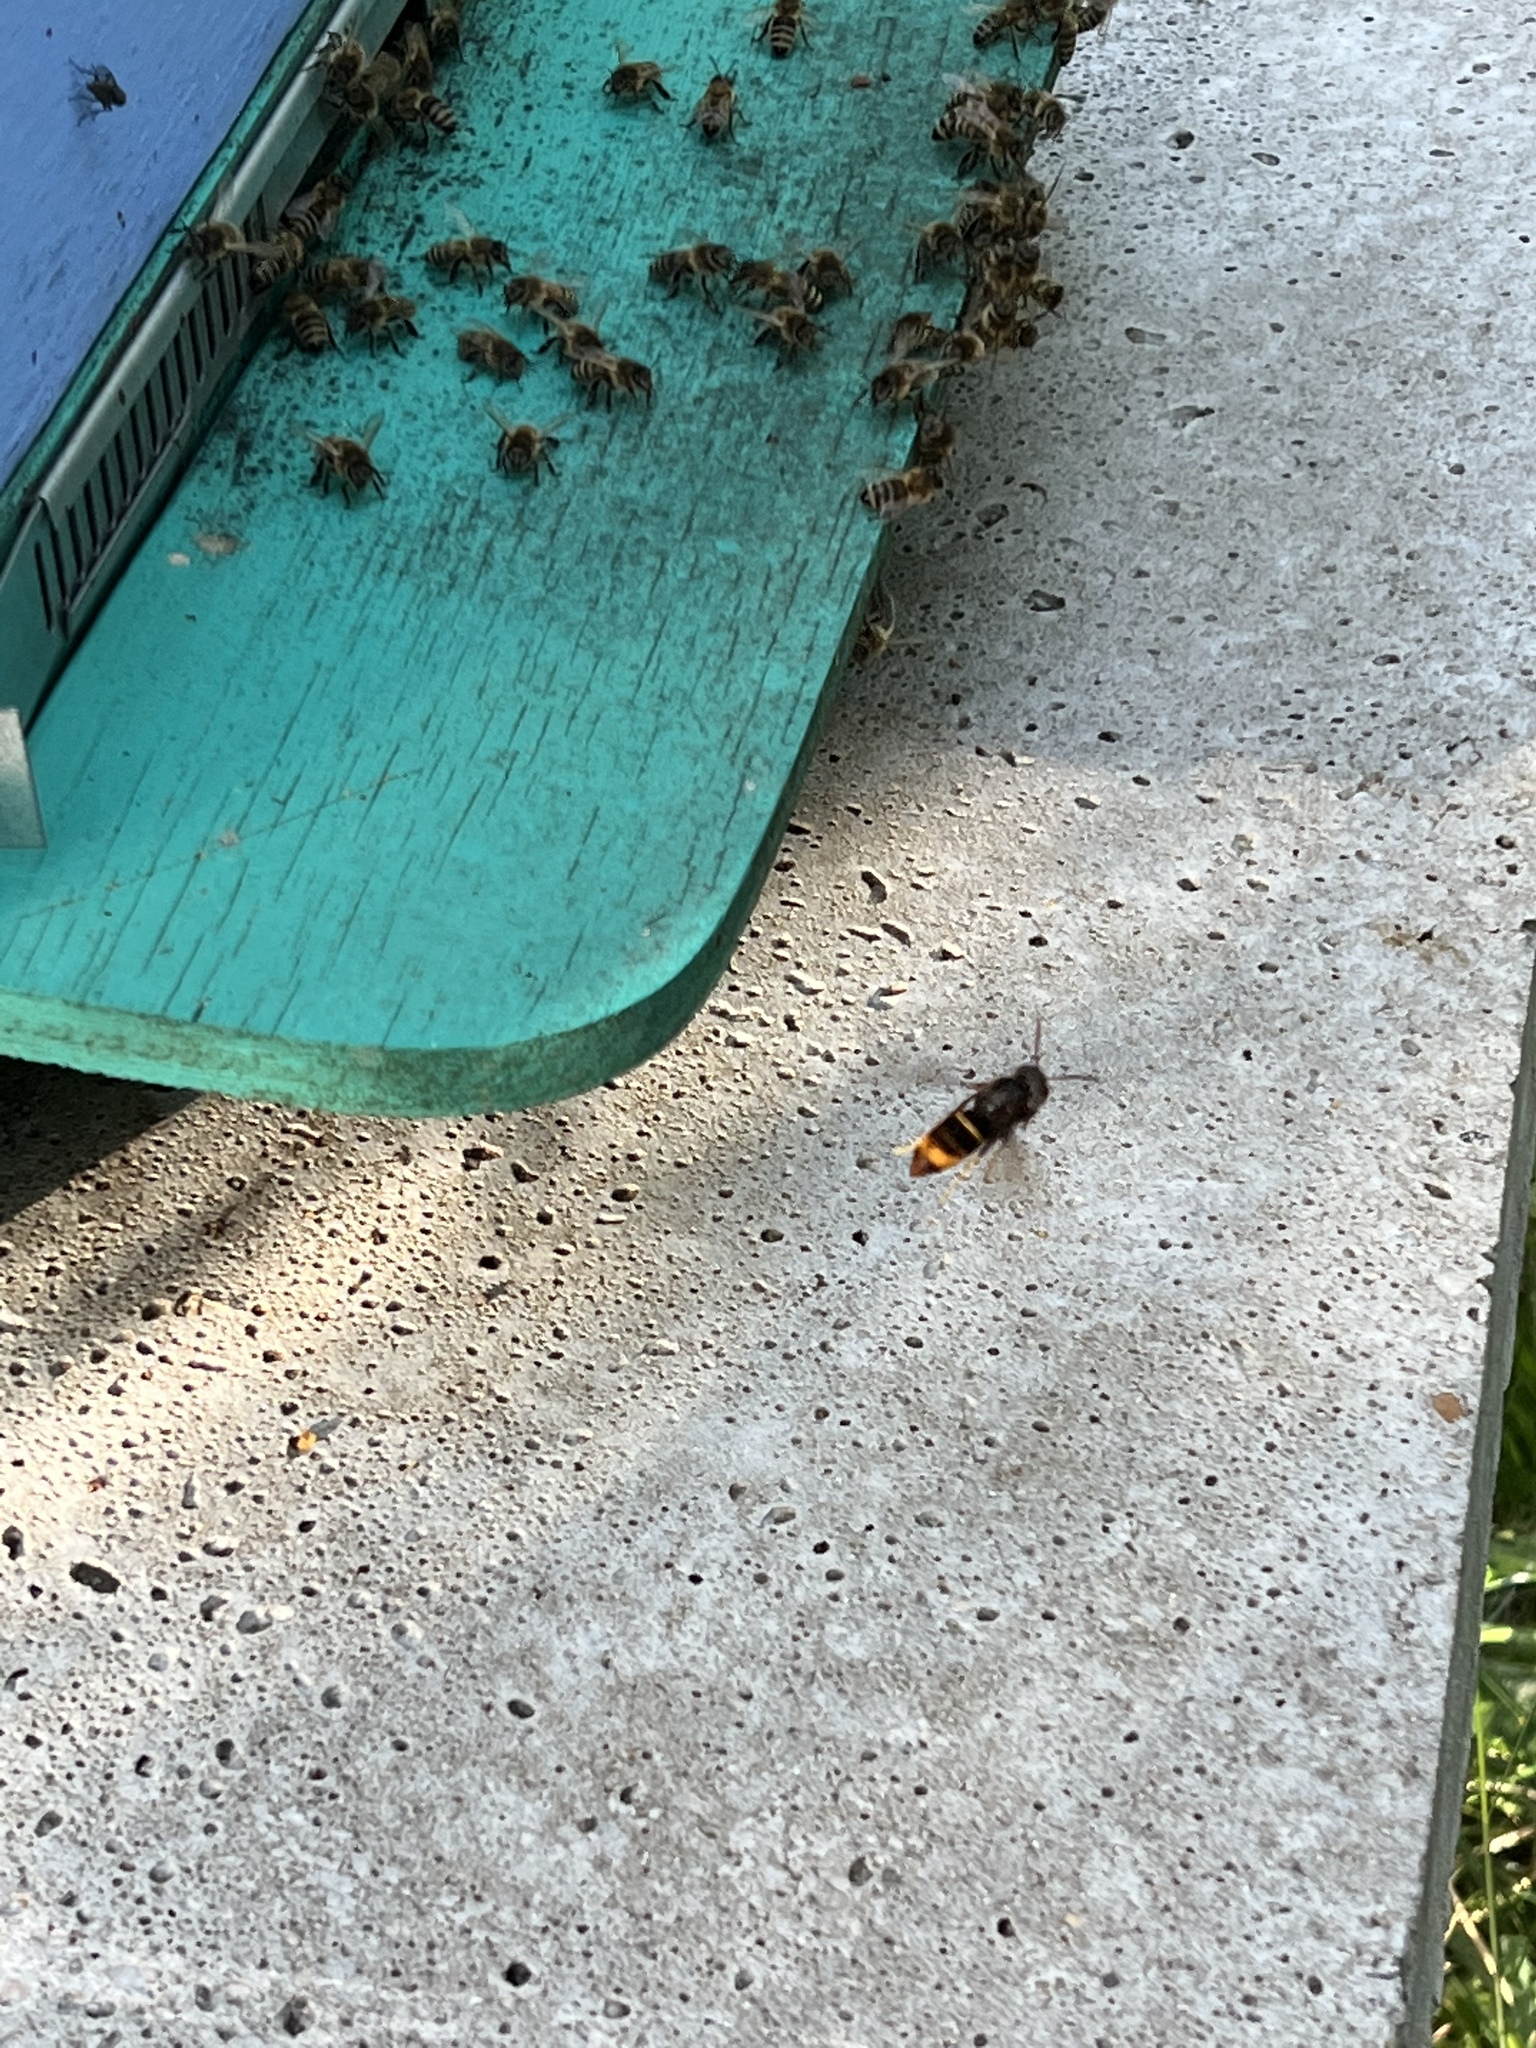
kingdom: Animalia
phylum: Arthropoda
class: Insecta
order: Hymenoptera
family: Vespidae
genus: Vespa
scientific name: Vespa velutina
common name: Asian hornet
